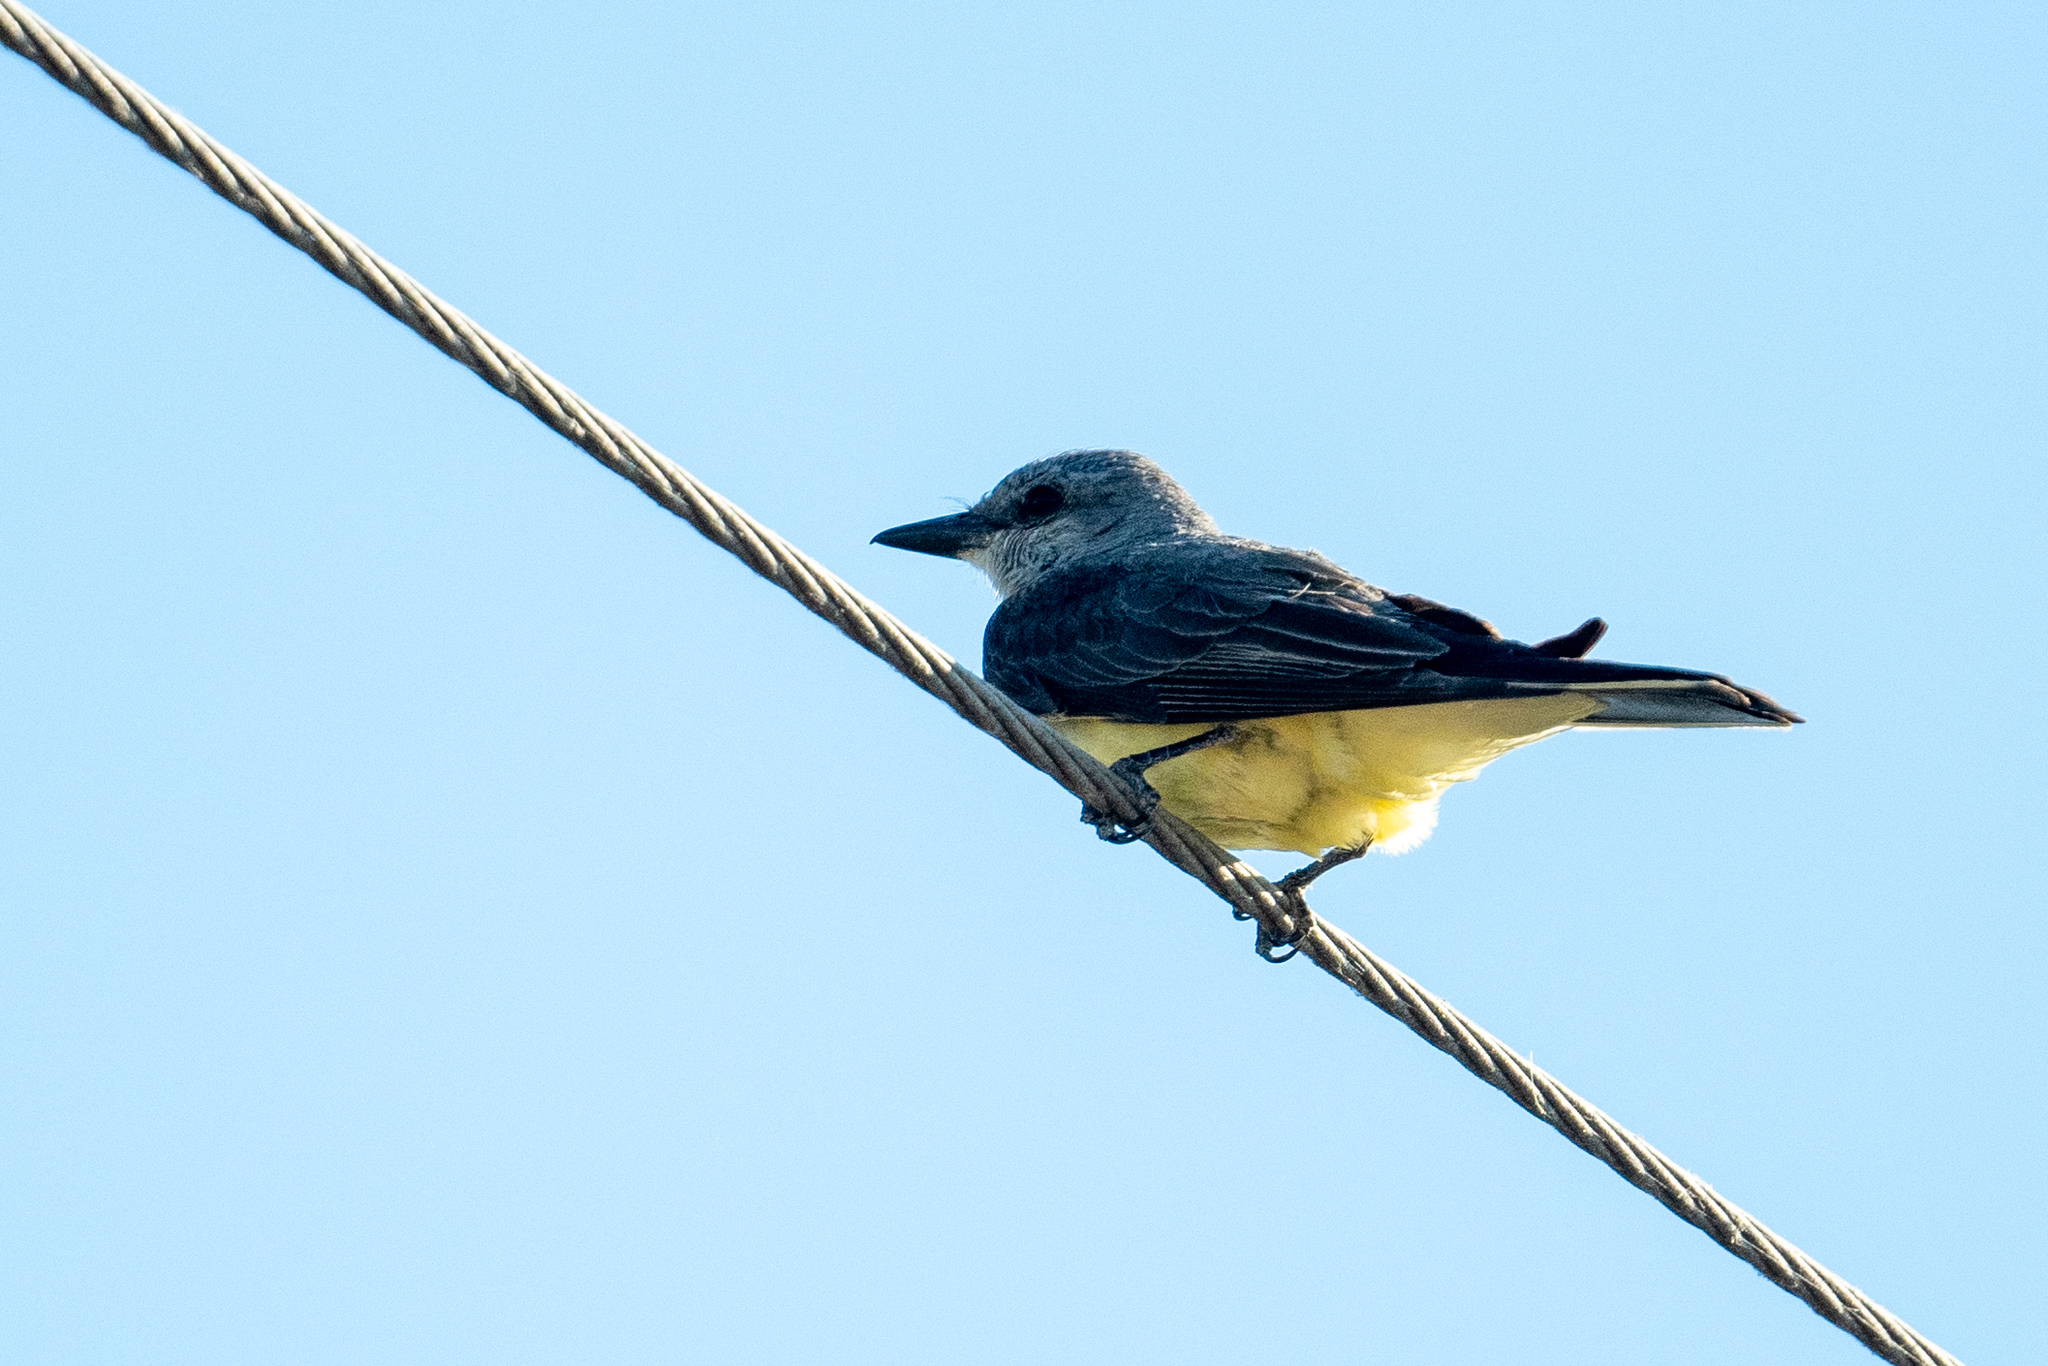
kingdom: Animalia
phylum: Chordata
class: Aves
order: Passeriformes
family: Tyrannidae
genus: Tyrannus
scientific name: Tyrannus verticalis
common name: Western kingbird
